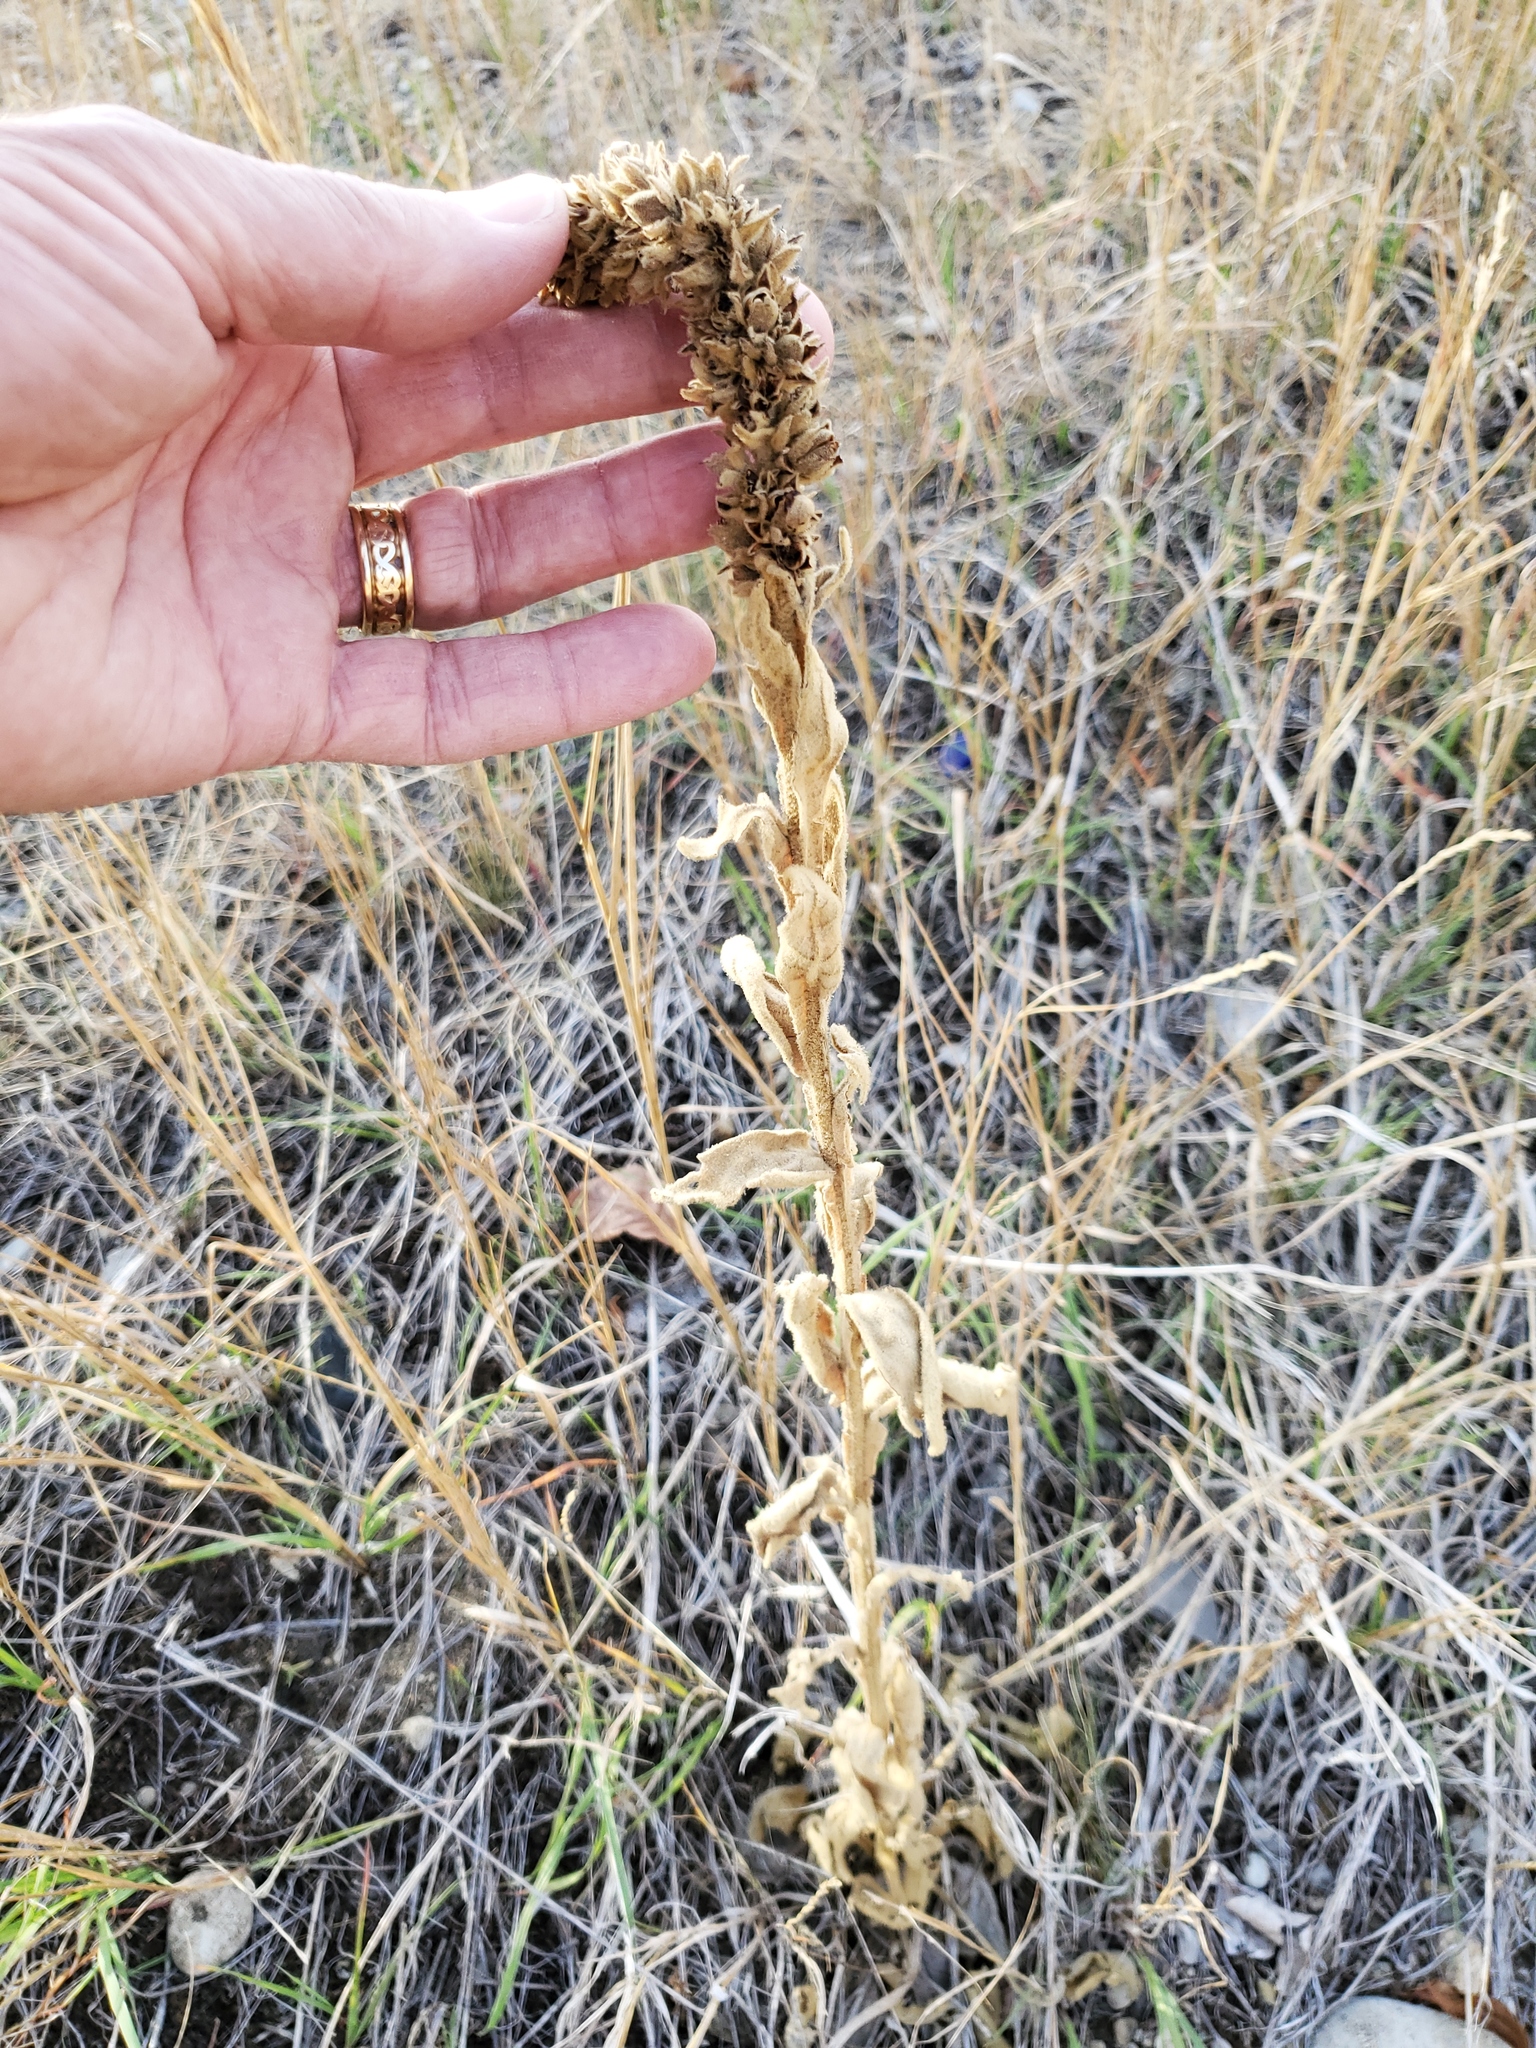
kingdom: Plantae
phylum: Tracheophyta
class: Magnoliopsida
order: Lamiales
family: Scrophulariaceae
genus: Verbascum
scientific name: Verbascum thapsus
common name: Common mullein
